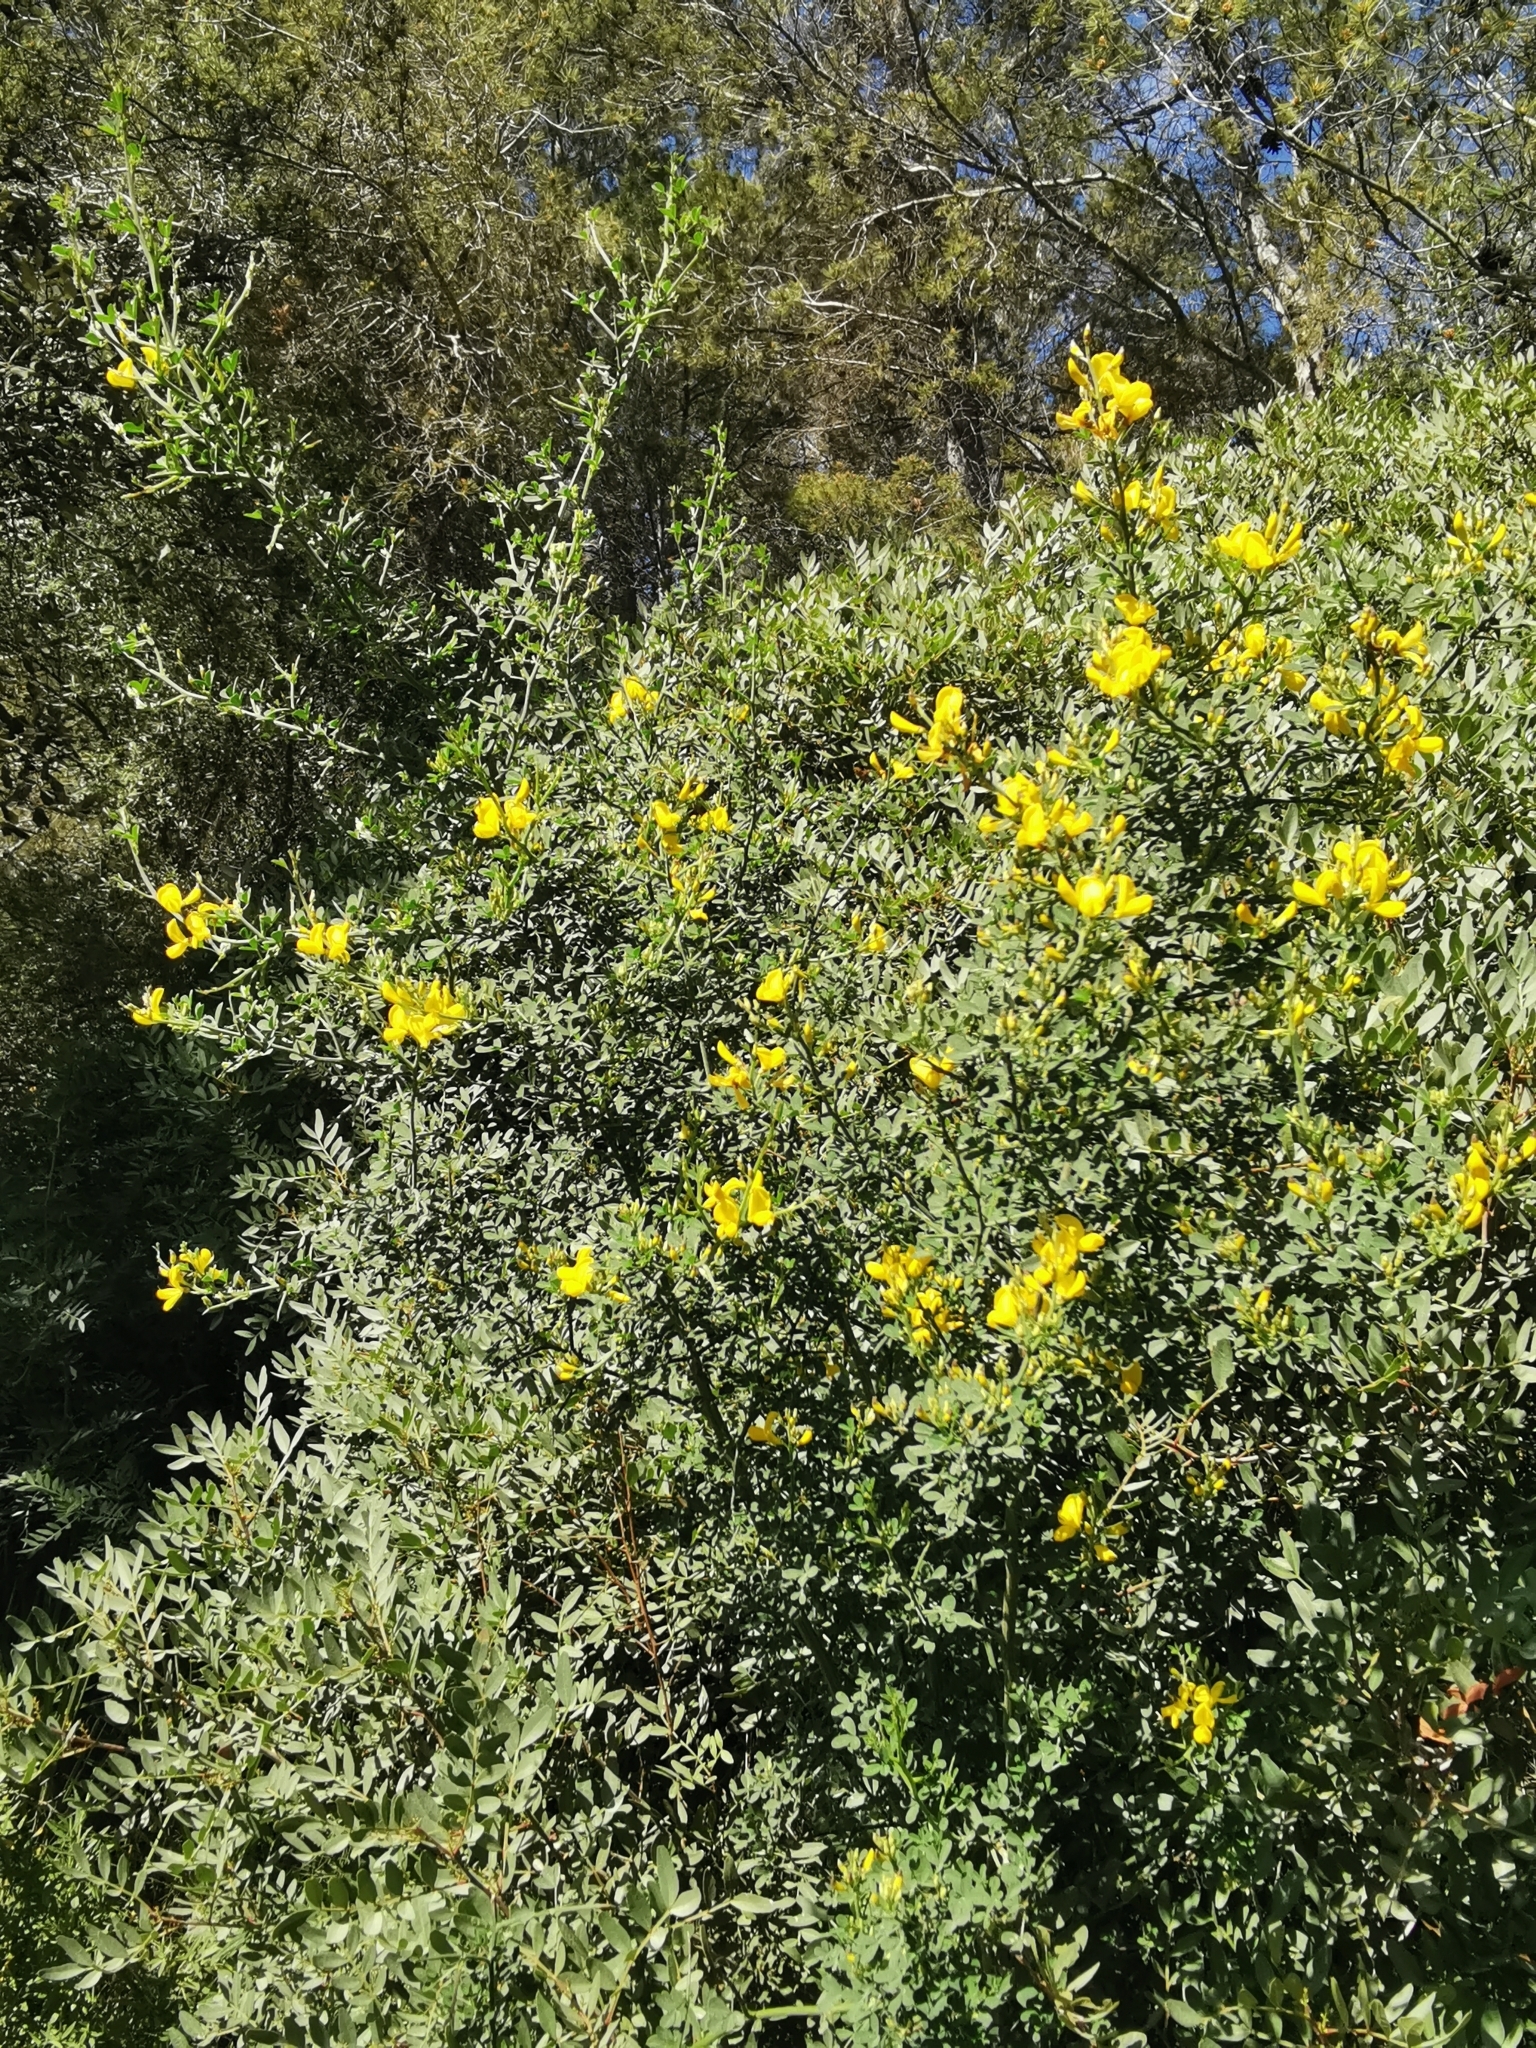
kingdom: Plantae
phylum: Tracheophyta
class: Magnoliopsida
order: Fabales
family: Fabaceae
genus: Calicotome
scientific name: Calicotome spinosa
